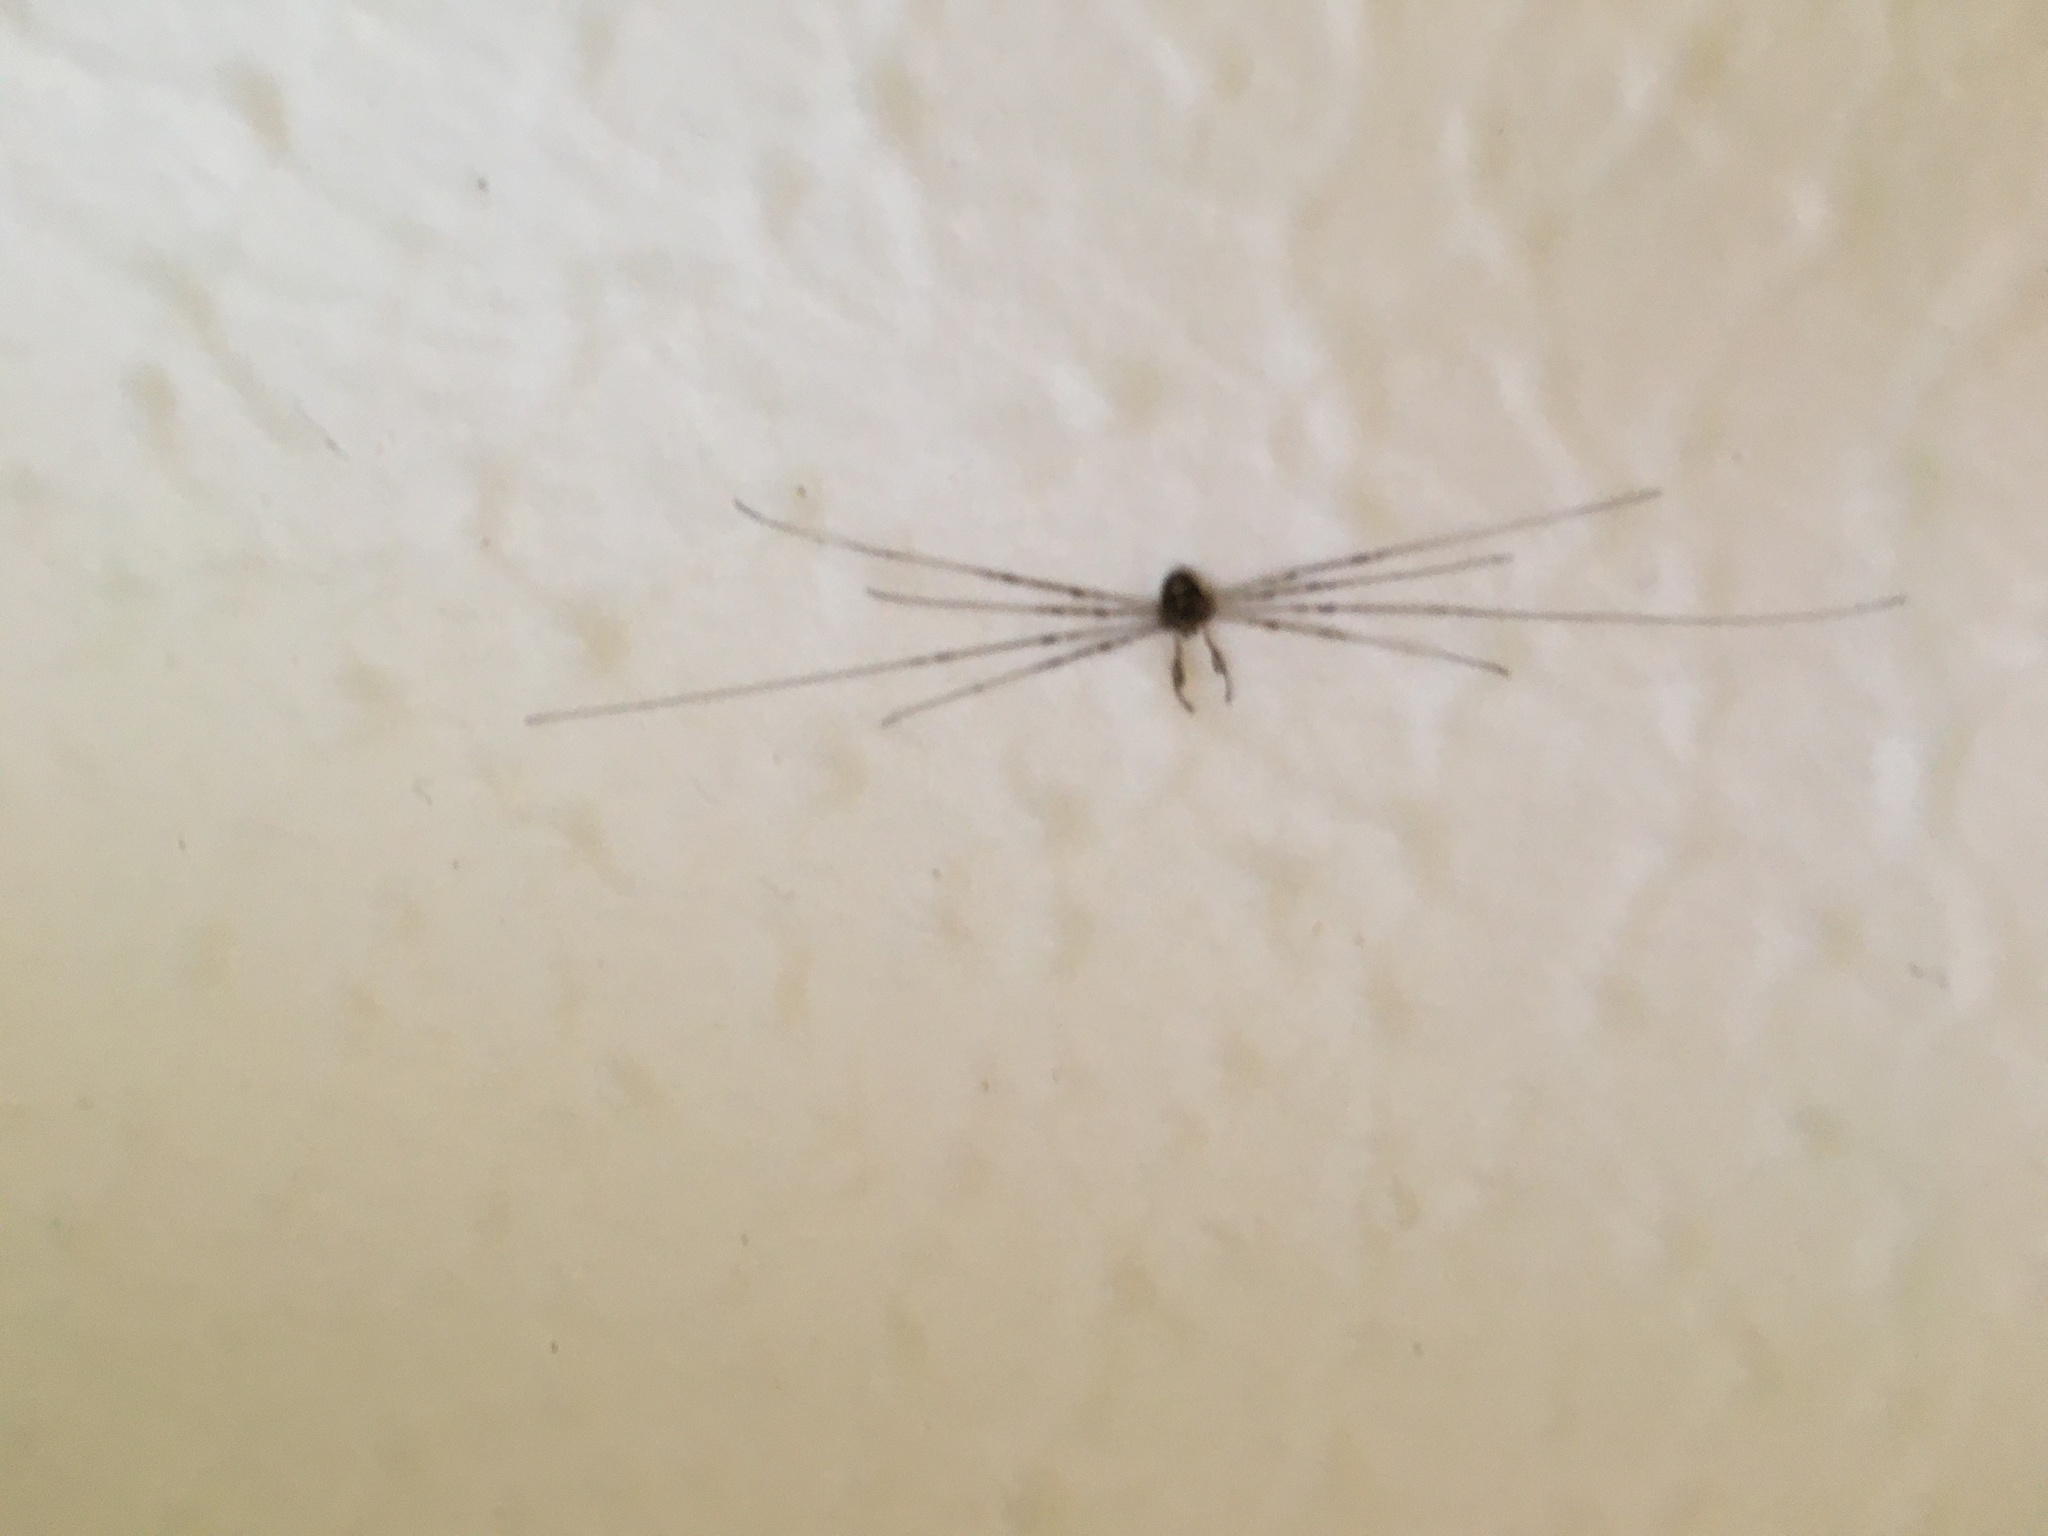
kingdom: Animalia
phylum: Arthropoda
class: Arachnida
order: Opiliones
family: Phalangiidae
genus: Dicranopalpus
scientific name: Dicranopalpus ramosus
